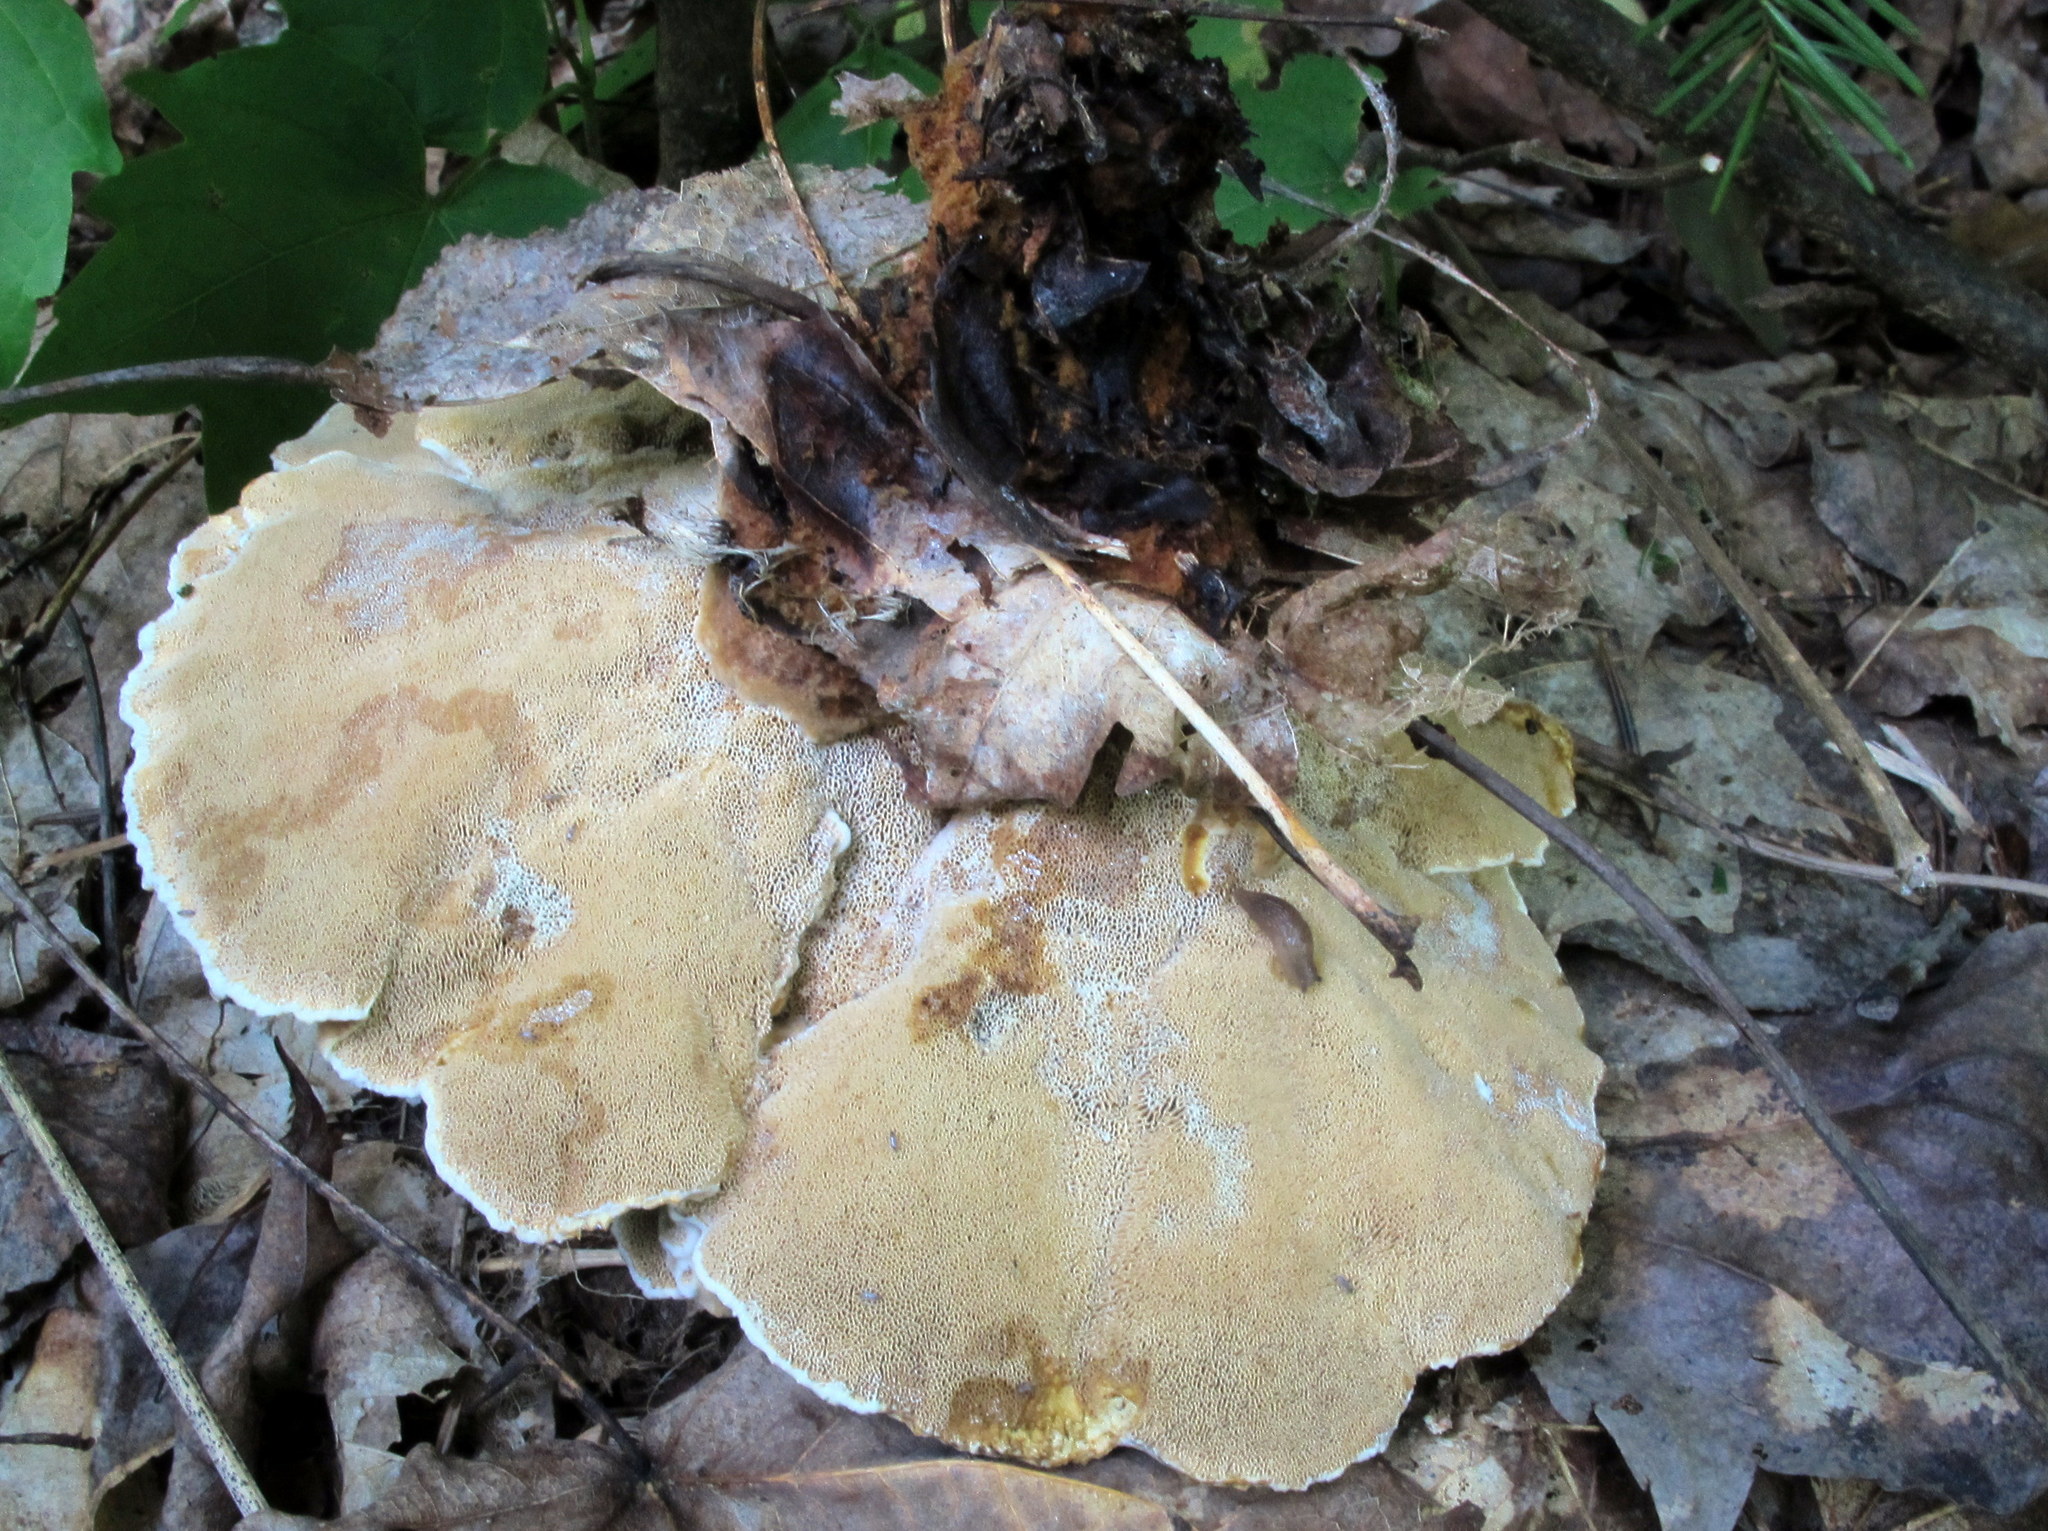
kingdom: Fungi
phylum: Basidiomycota
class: Agaricomycetes
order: Hymenochaetales
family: Hymenochaetaceae
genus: Onnia
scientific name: Onnia tomentosa
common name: Velvet rosette
